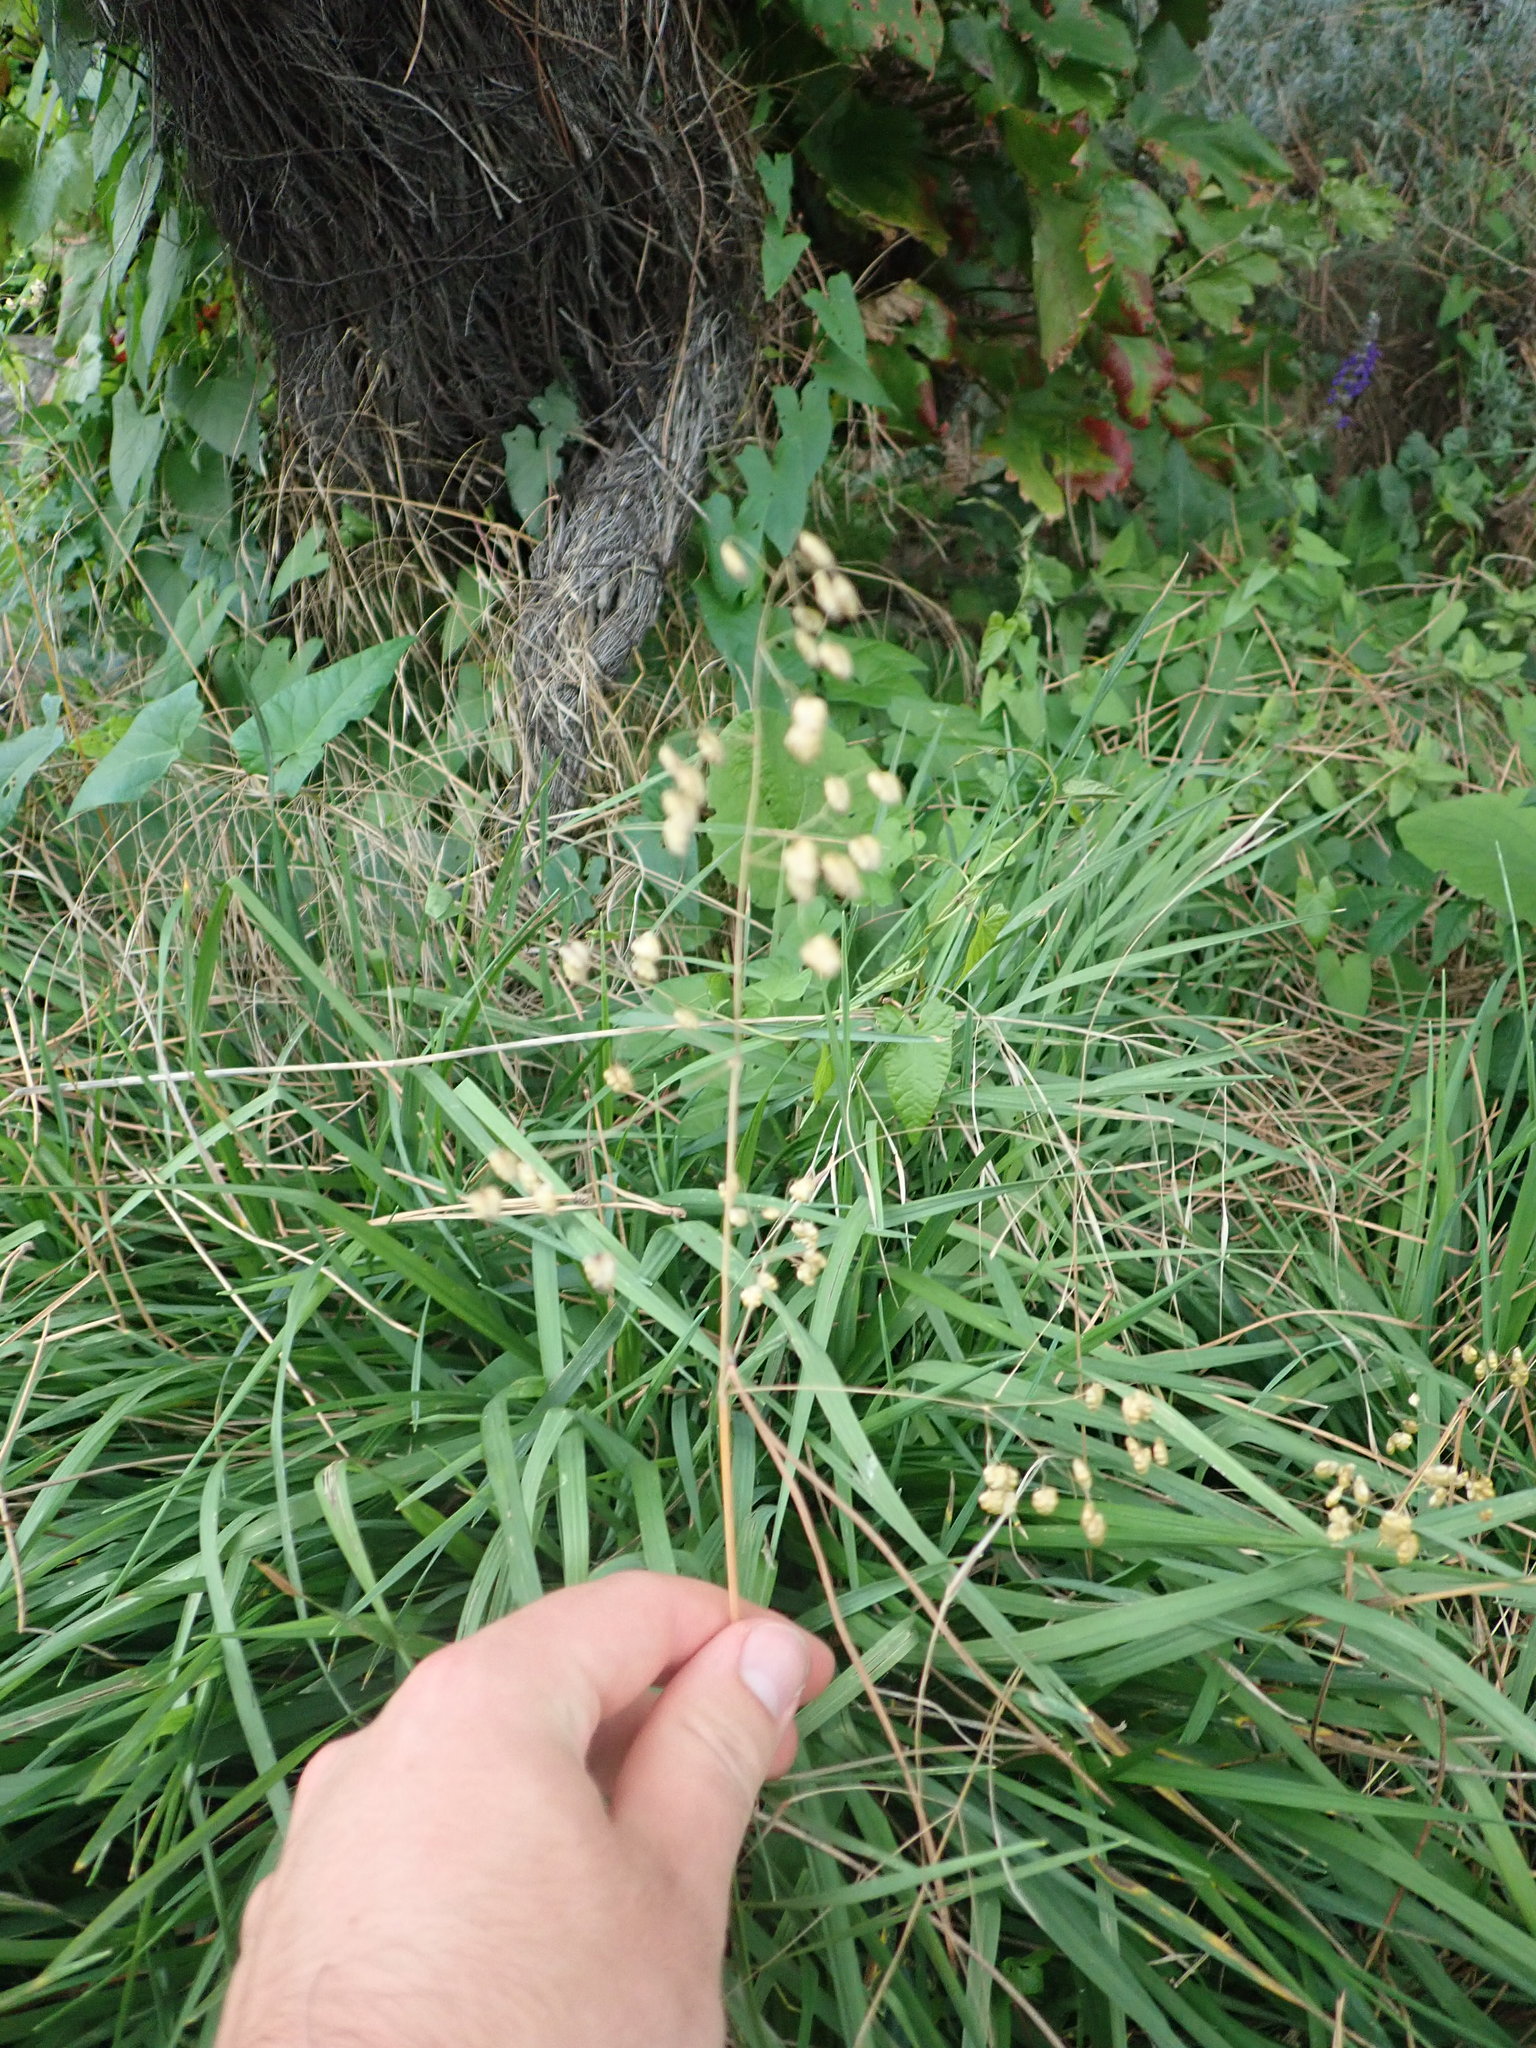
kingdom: Plantae
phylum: Tracheophyta
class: Liliopsida
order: Poales
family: Poaceae
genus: Briza
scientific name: Briza media
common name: Quaking grass
